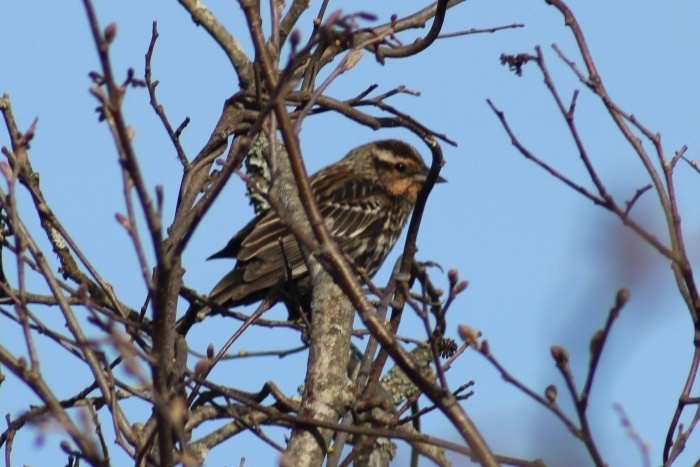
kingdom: Animalia
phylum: Chordata
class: Aves
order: Passeriformes
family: Icteridae
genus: Agelaius
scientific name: Agelaius phoeniceus
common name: Red-winged blackbird
